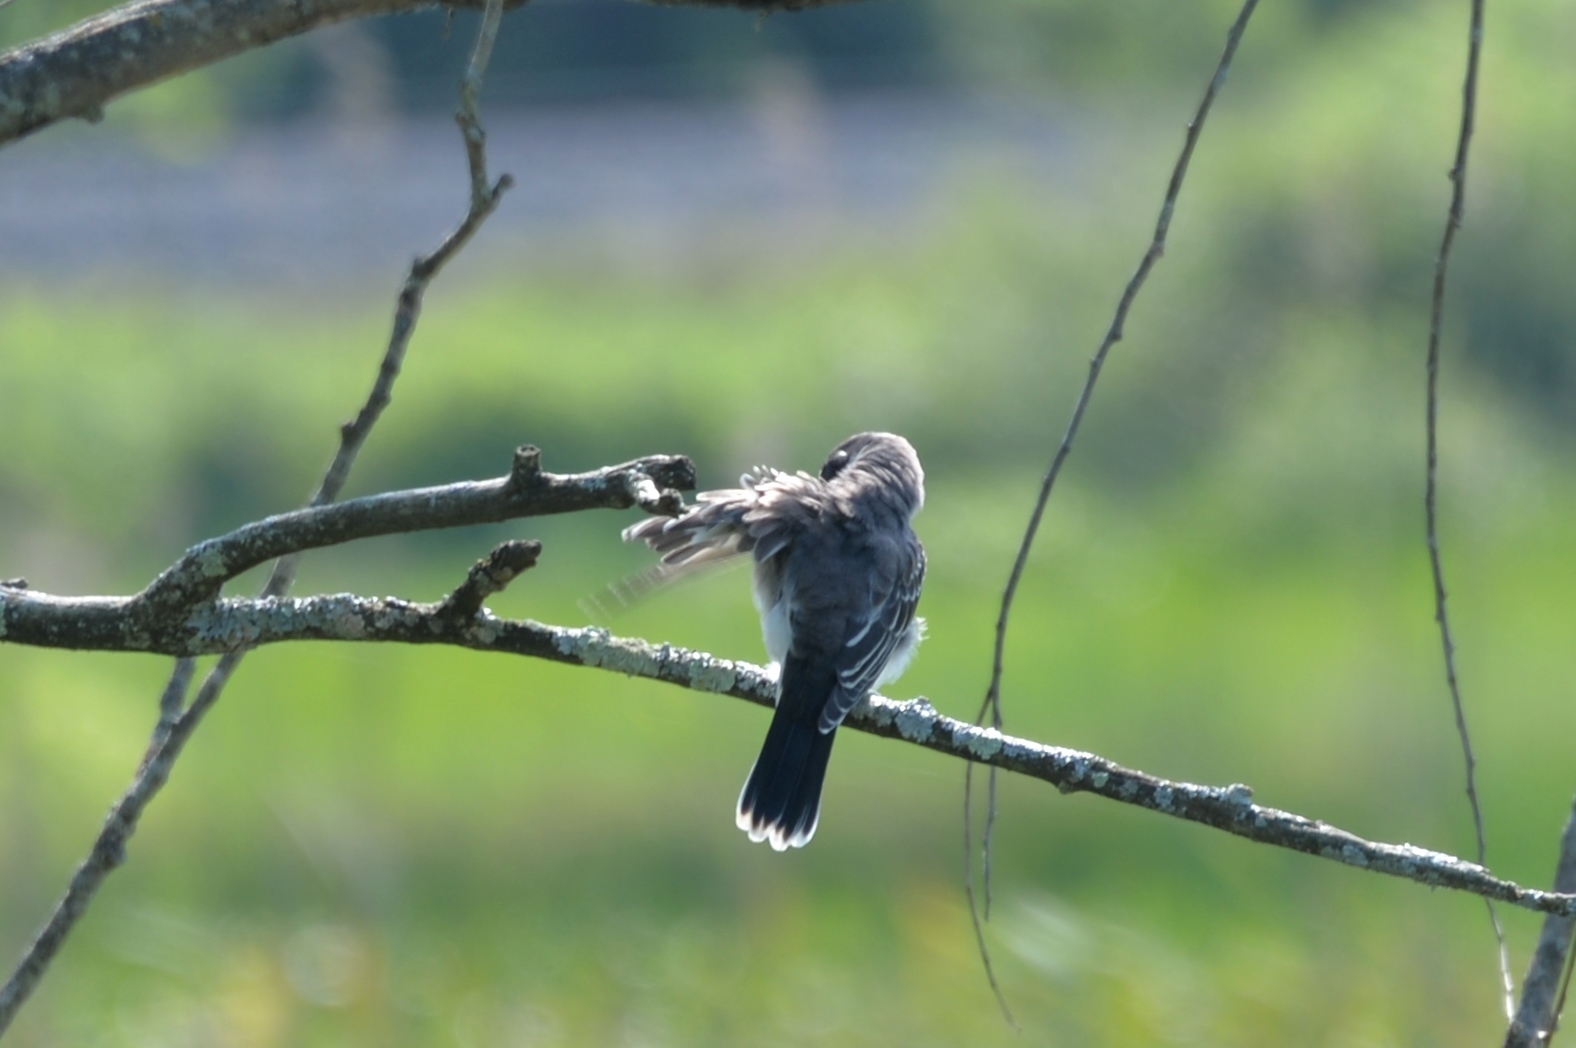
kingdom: Animalia
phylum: Chordata
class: Aves
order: Passeriformes
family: Tyrannidae
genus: Tyrannus
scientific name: Tyrannus tyrannus
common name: Eastern kingbird
